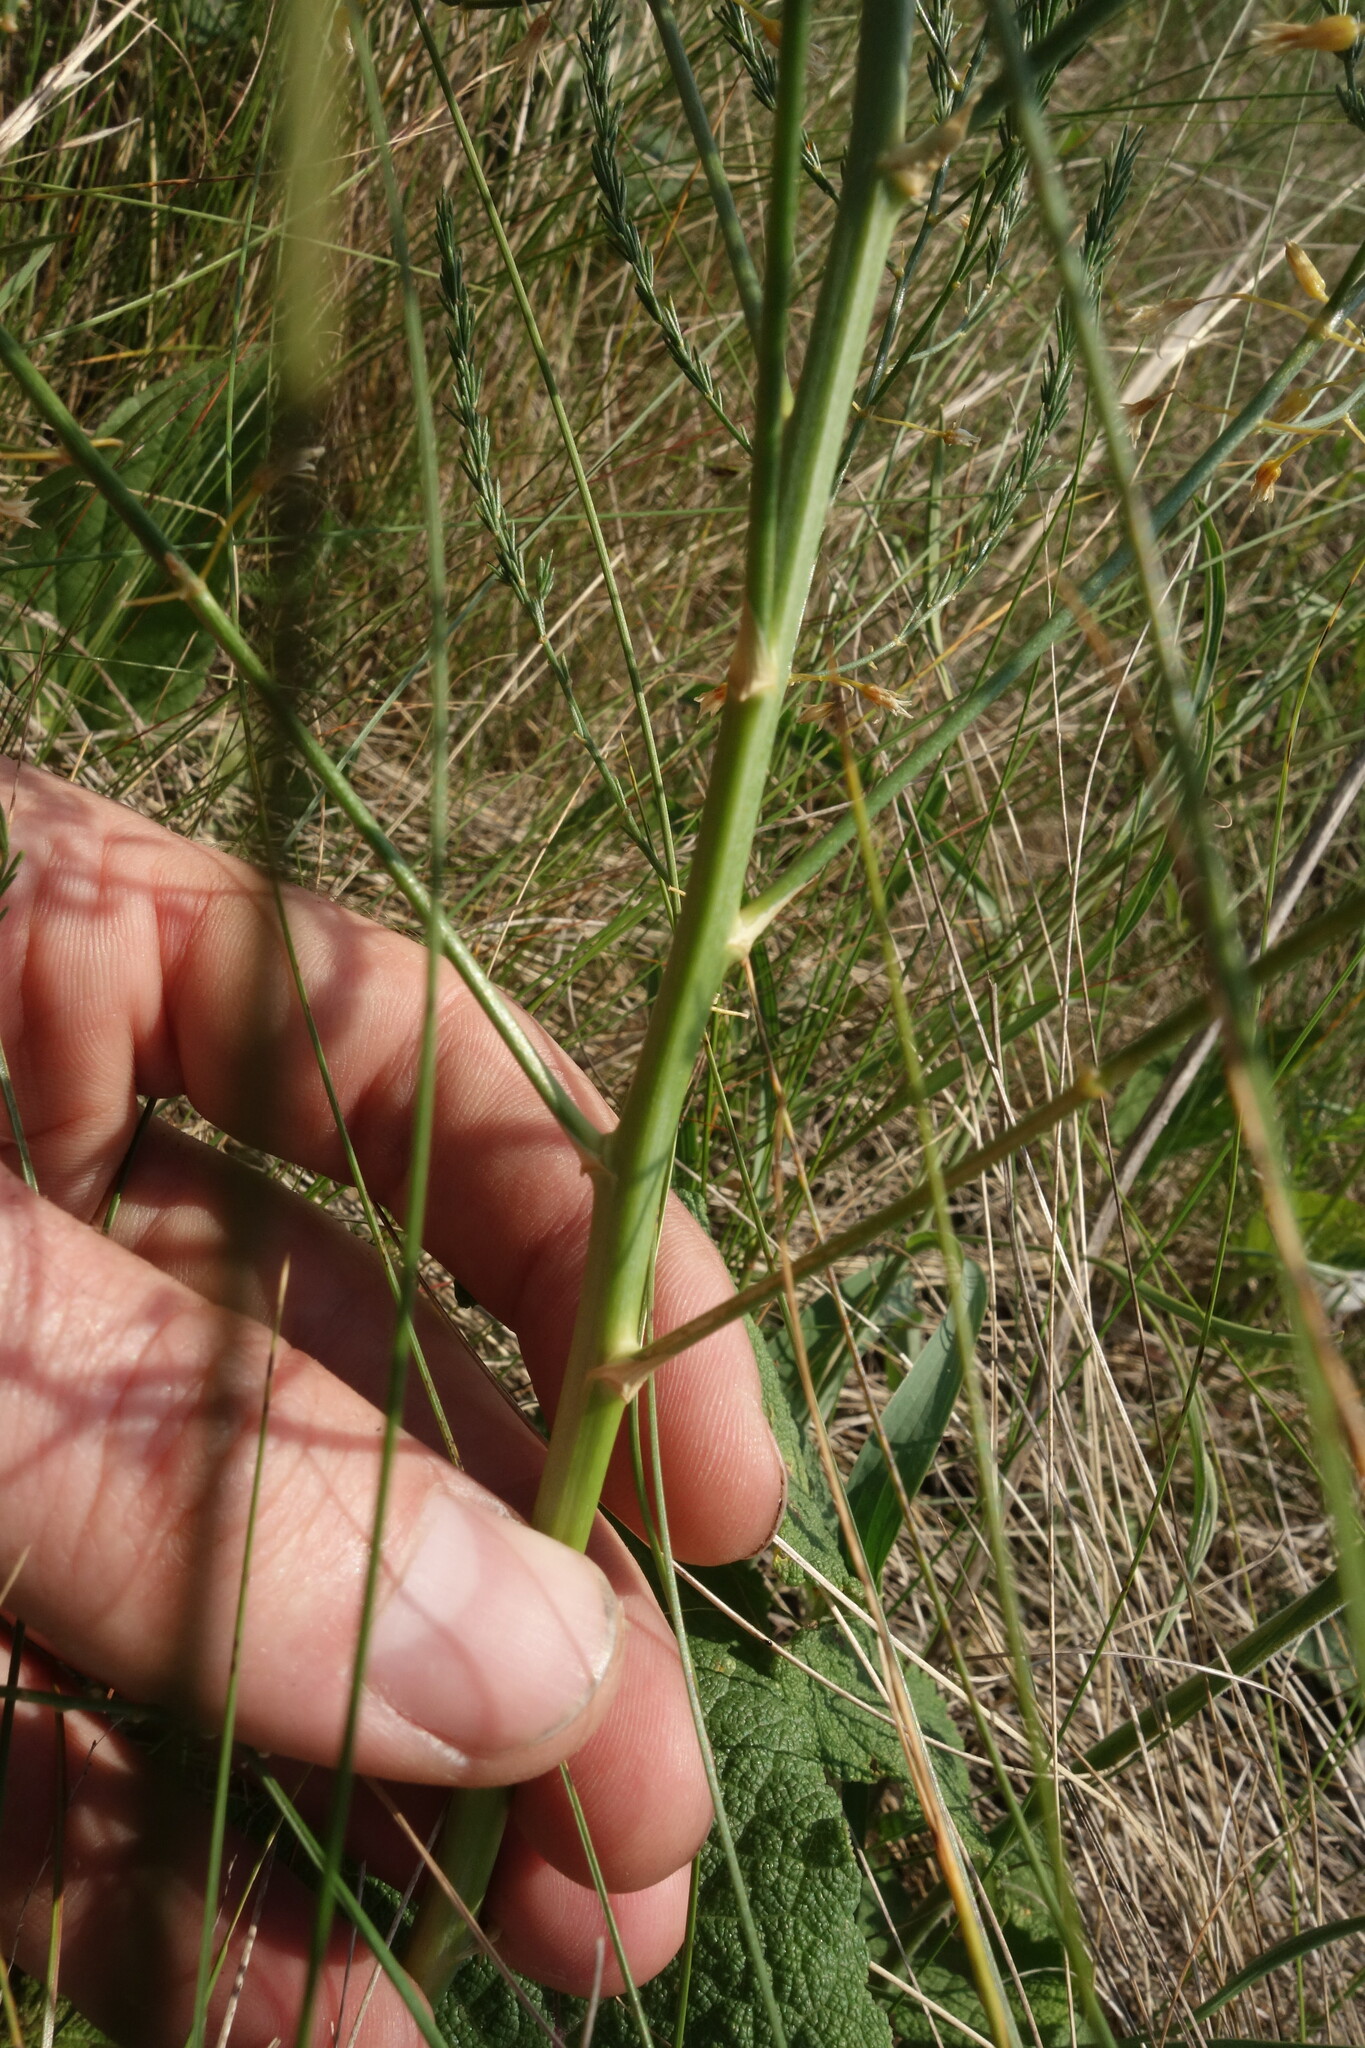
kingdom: Plantae
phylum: Tracheophyta
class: Liliopsida
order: Asparagales
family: Asparagaceae
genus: Asparagus
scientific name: Asparagus officinalis
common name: Garden asparagus
